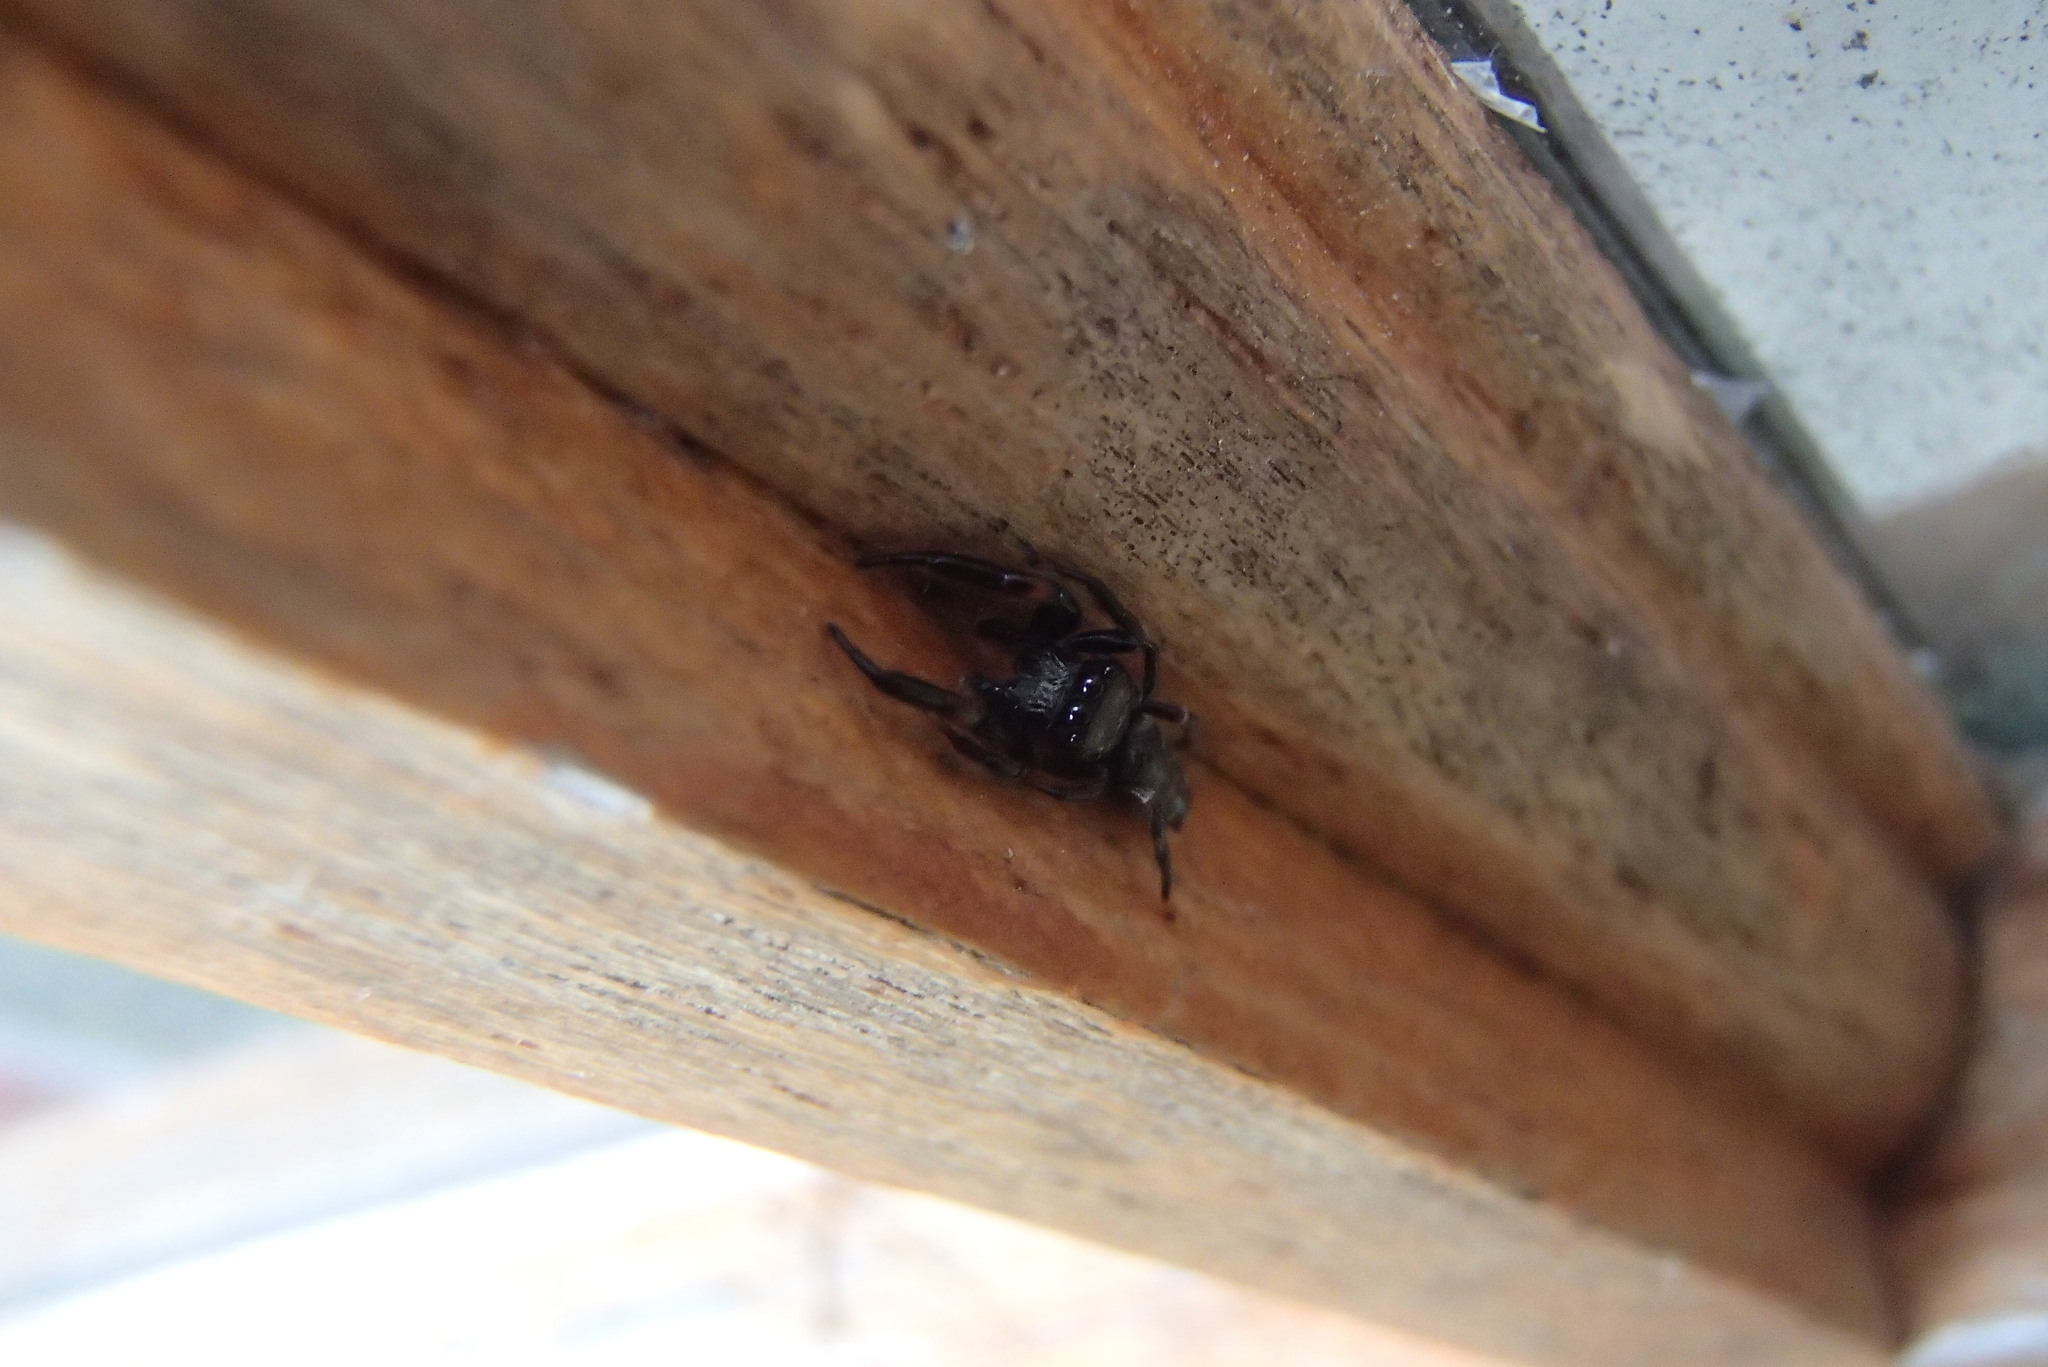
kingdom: Animalia
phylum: Arthropoda
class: Arachnida
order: Araneae
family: Salticidae
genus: Pungalina
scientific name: Pungalina plurilineata
